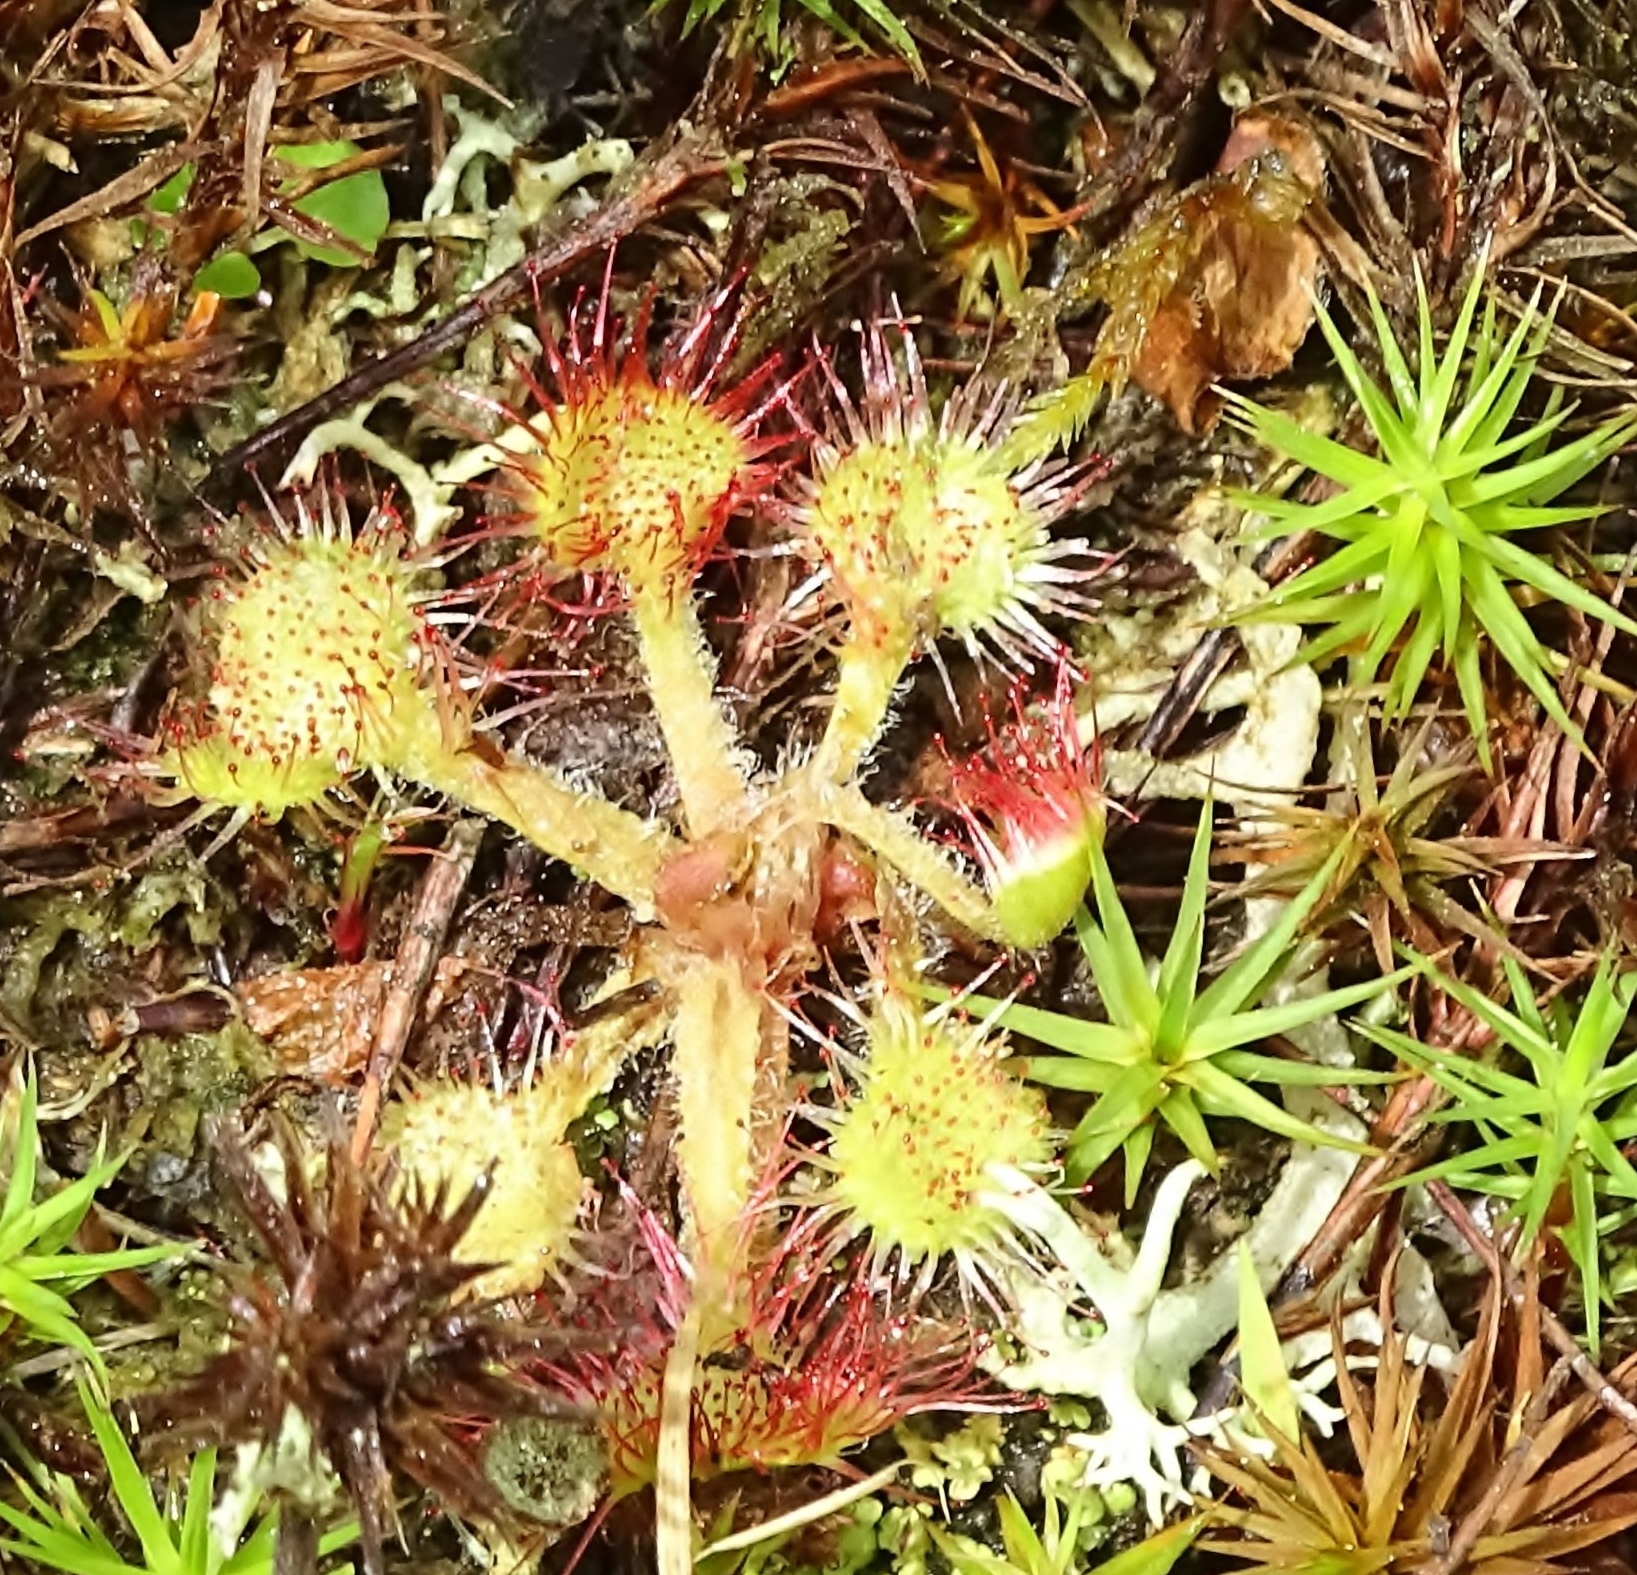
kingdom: Plantae
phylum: Tracheophyta
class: Magnoliopsida
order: Caryophyllales
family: Droseraceae
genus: Drosera
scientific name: Drosera rotundifolia
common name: Round-leaved sundew
